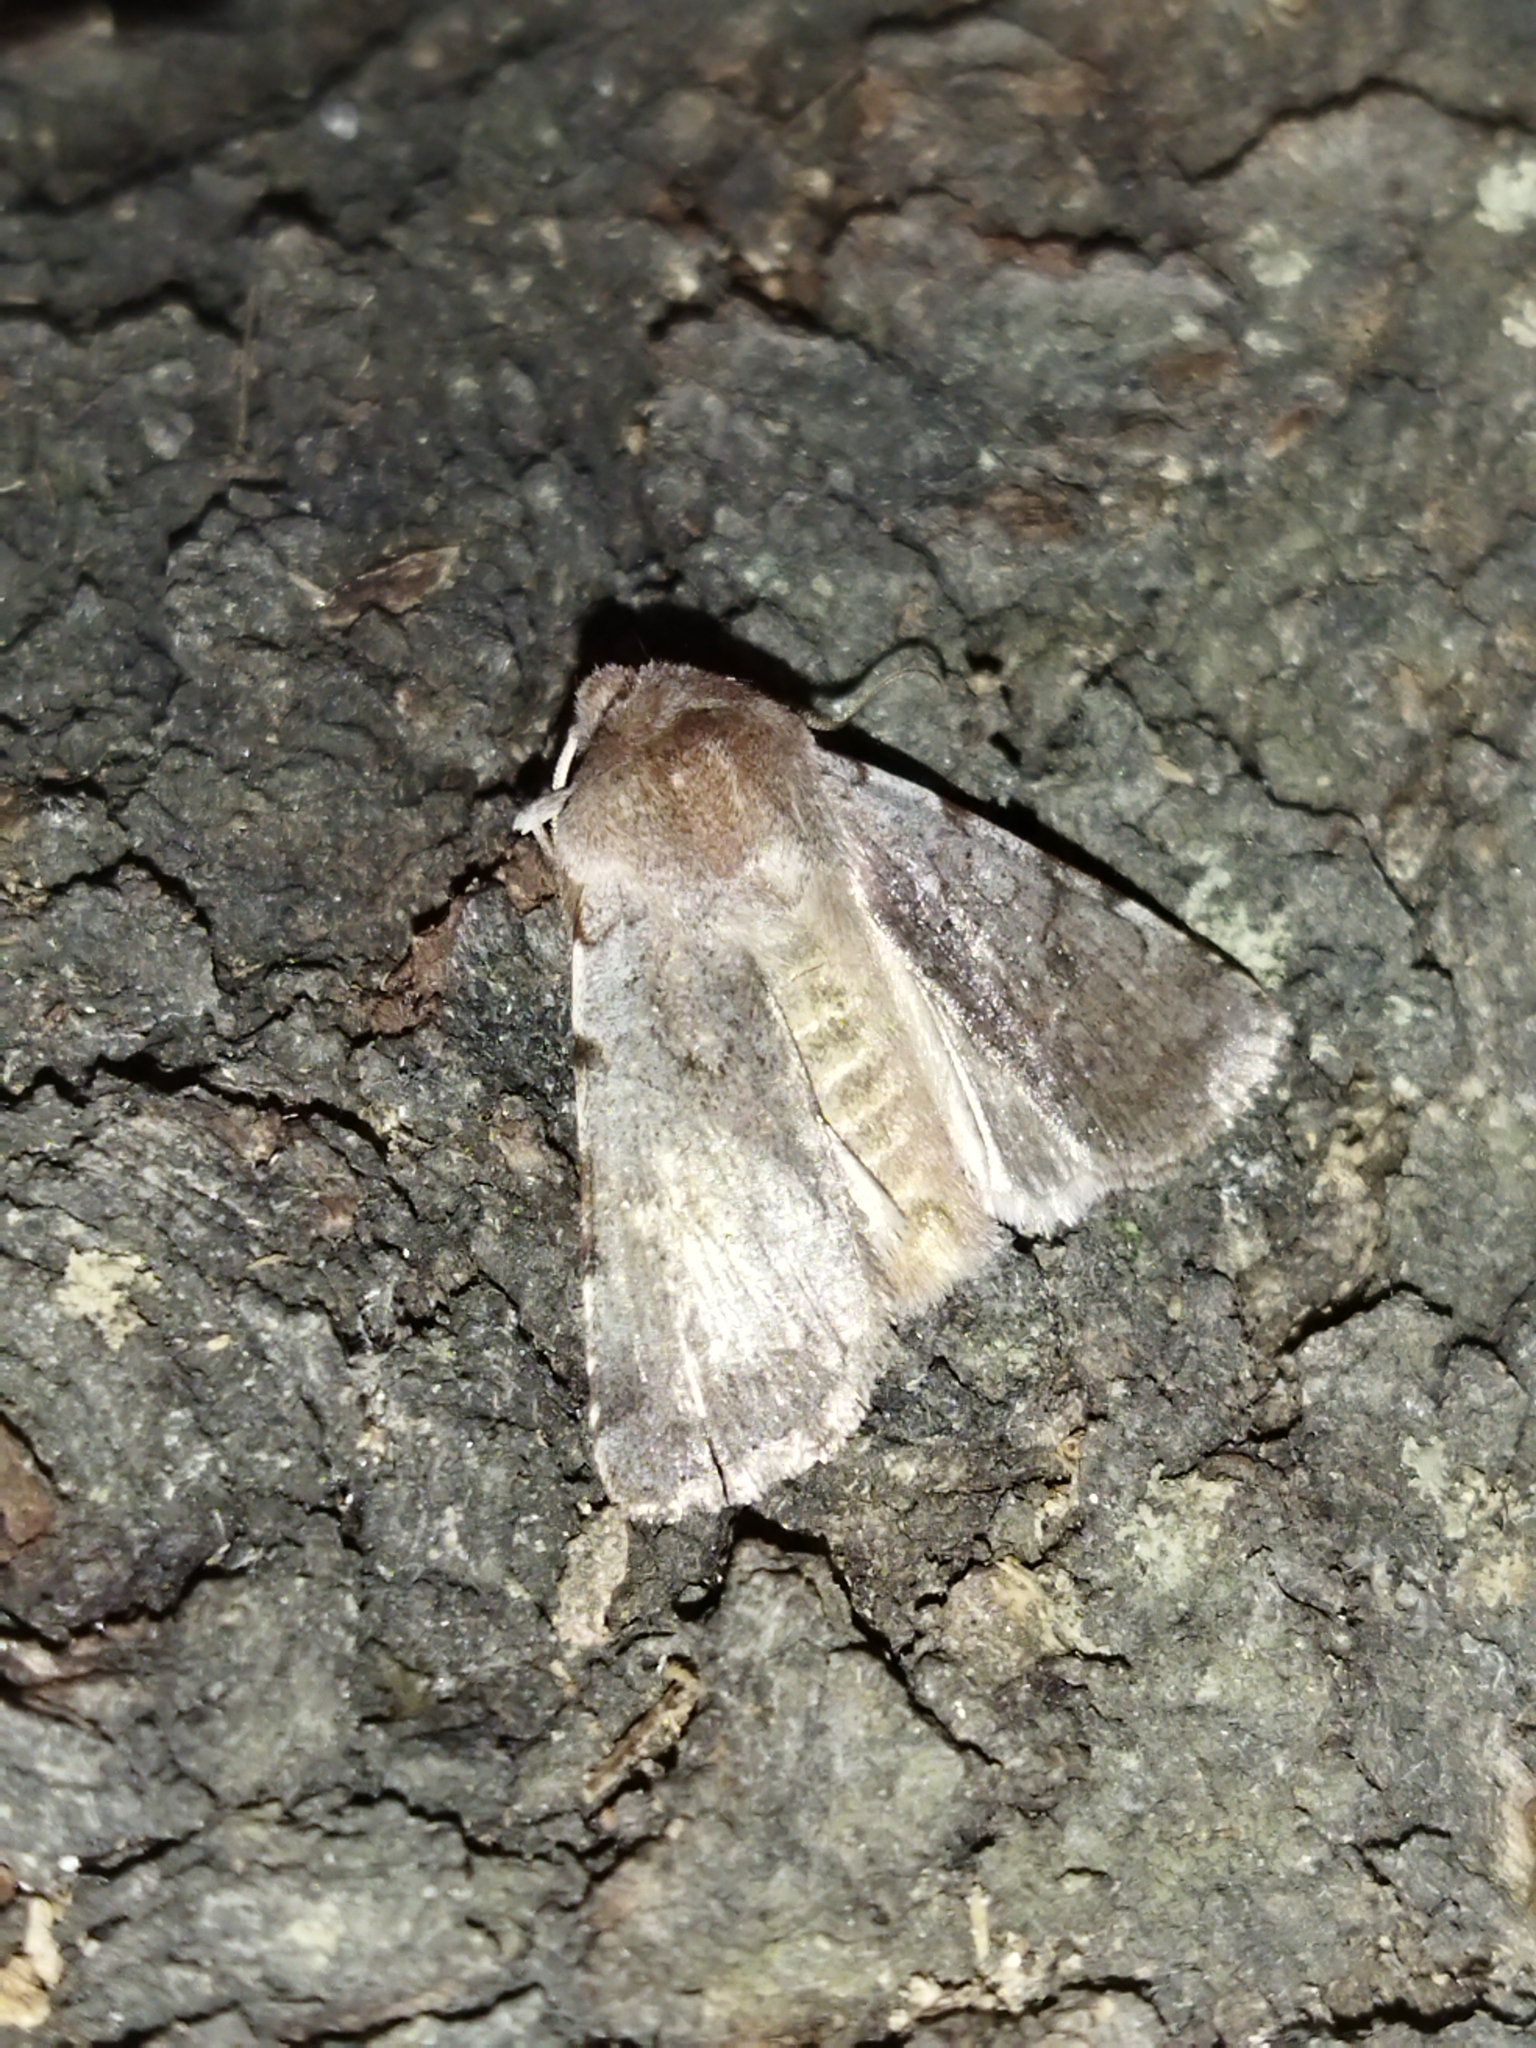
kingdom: Animalia
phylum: Arthropoda
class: Insecta
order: Lepidoptera
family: Noctuidae
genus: Cerastis
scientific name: Cerastis rubricosa
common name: Red chestnut
